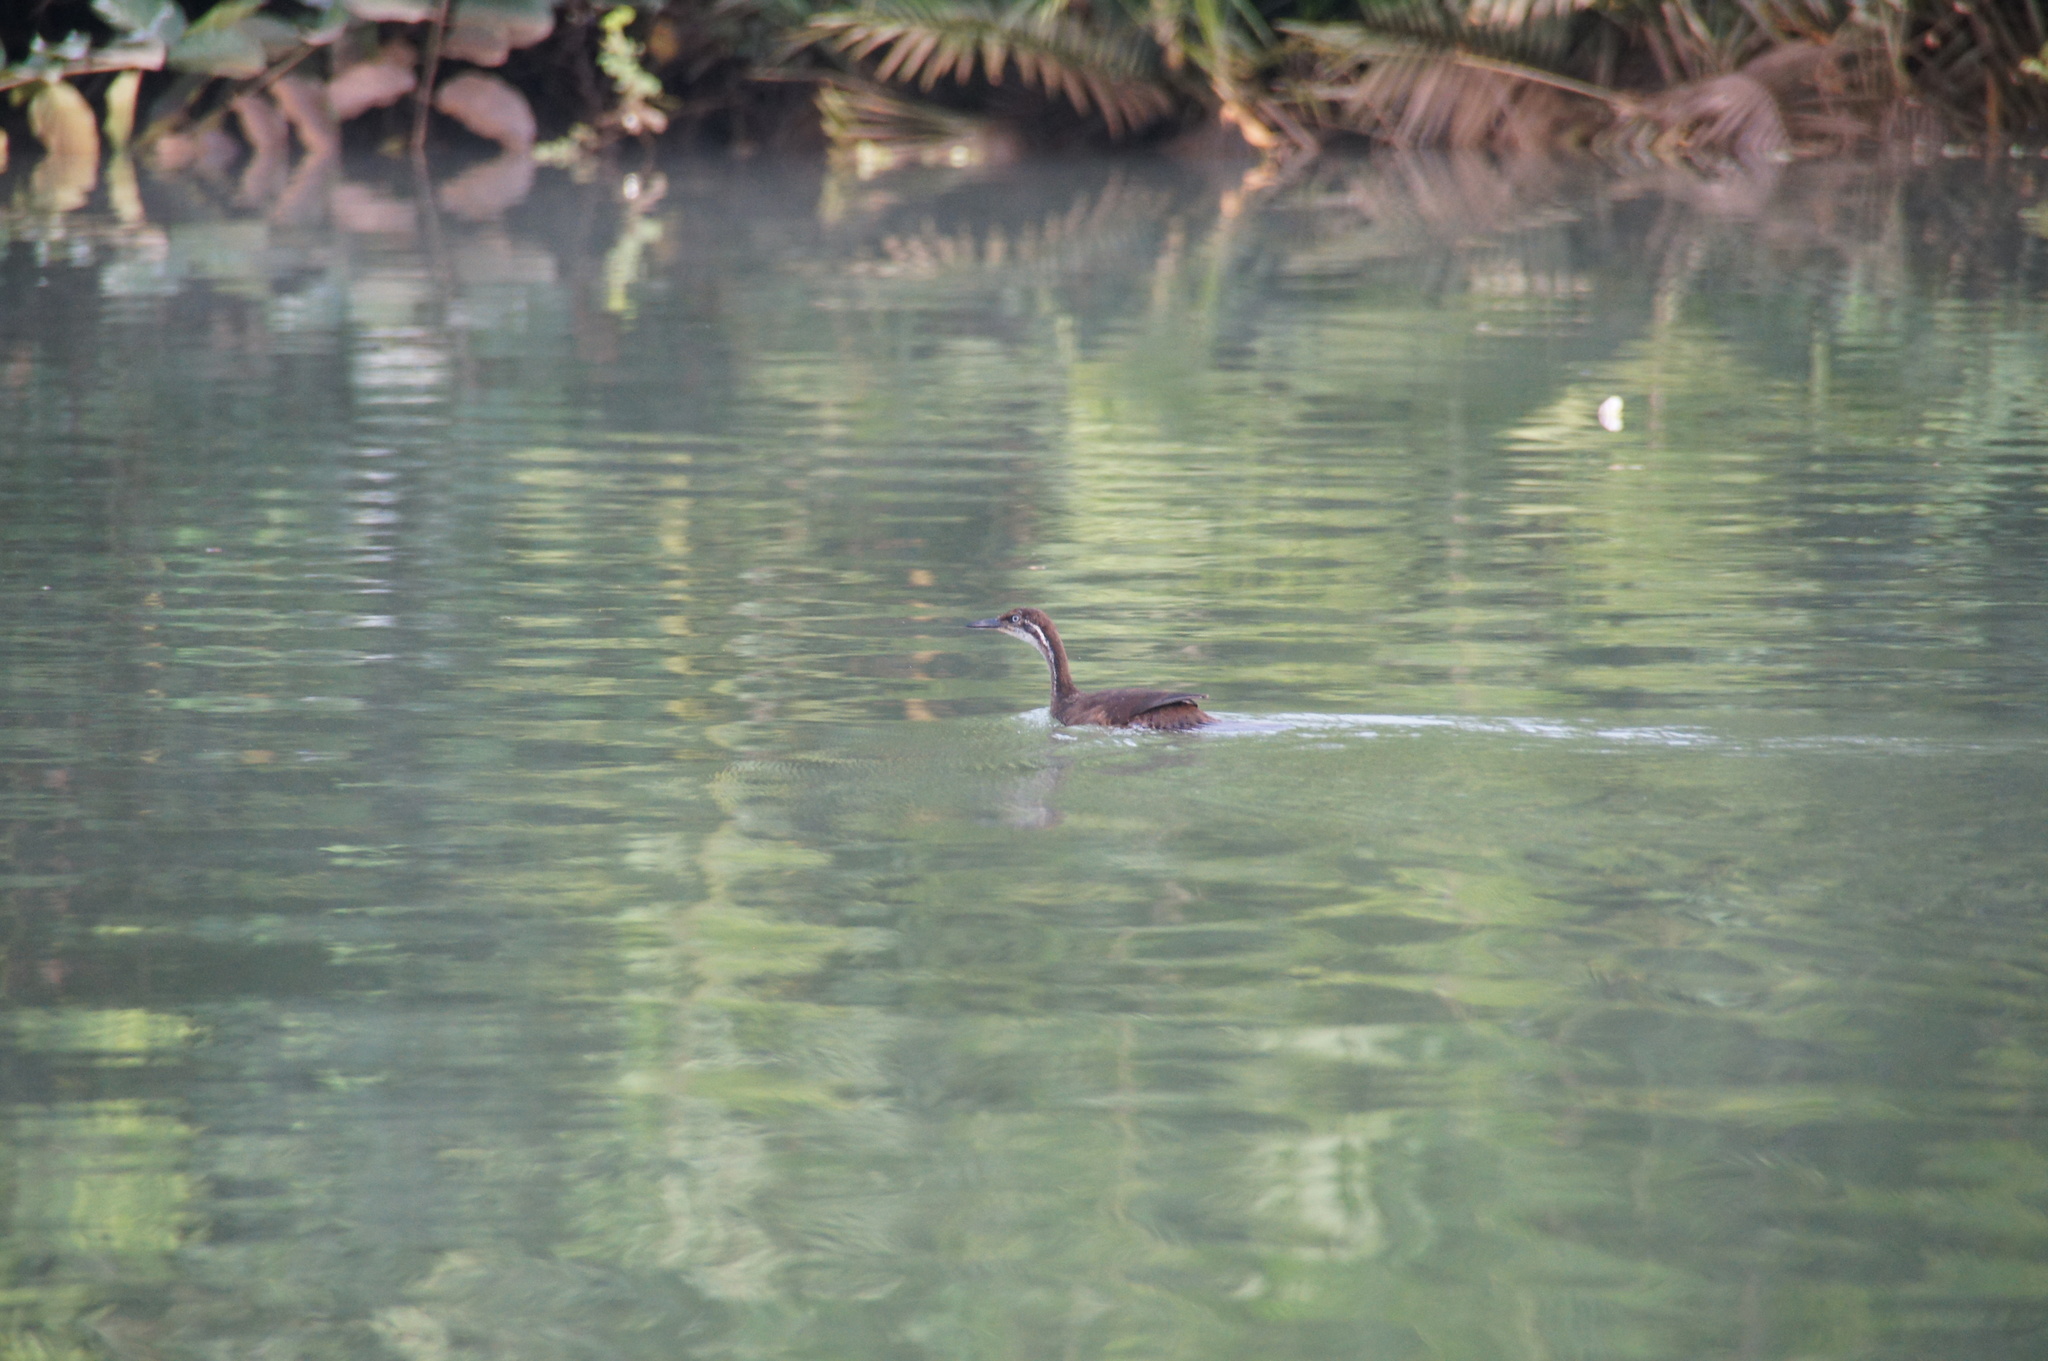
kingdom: Animalia
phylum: Chordata
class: Aves
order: Gruiformes
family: Heliornithidae
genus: Podica
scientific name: Podica senegalensis
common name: African finfoot
